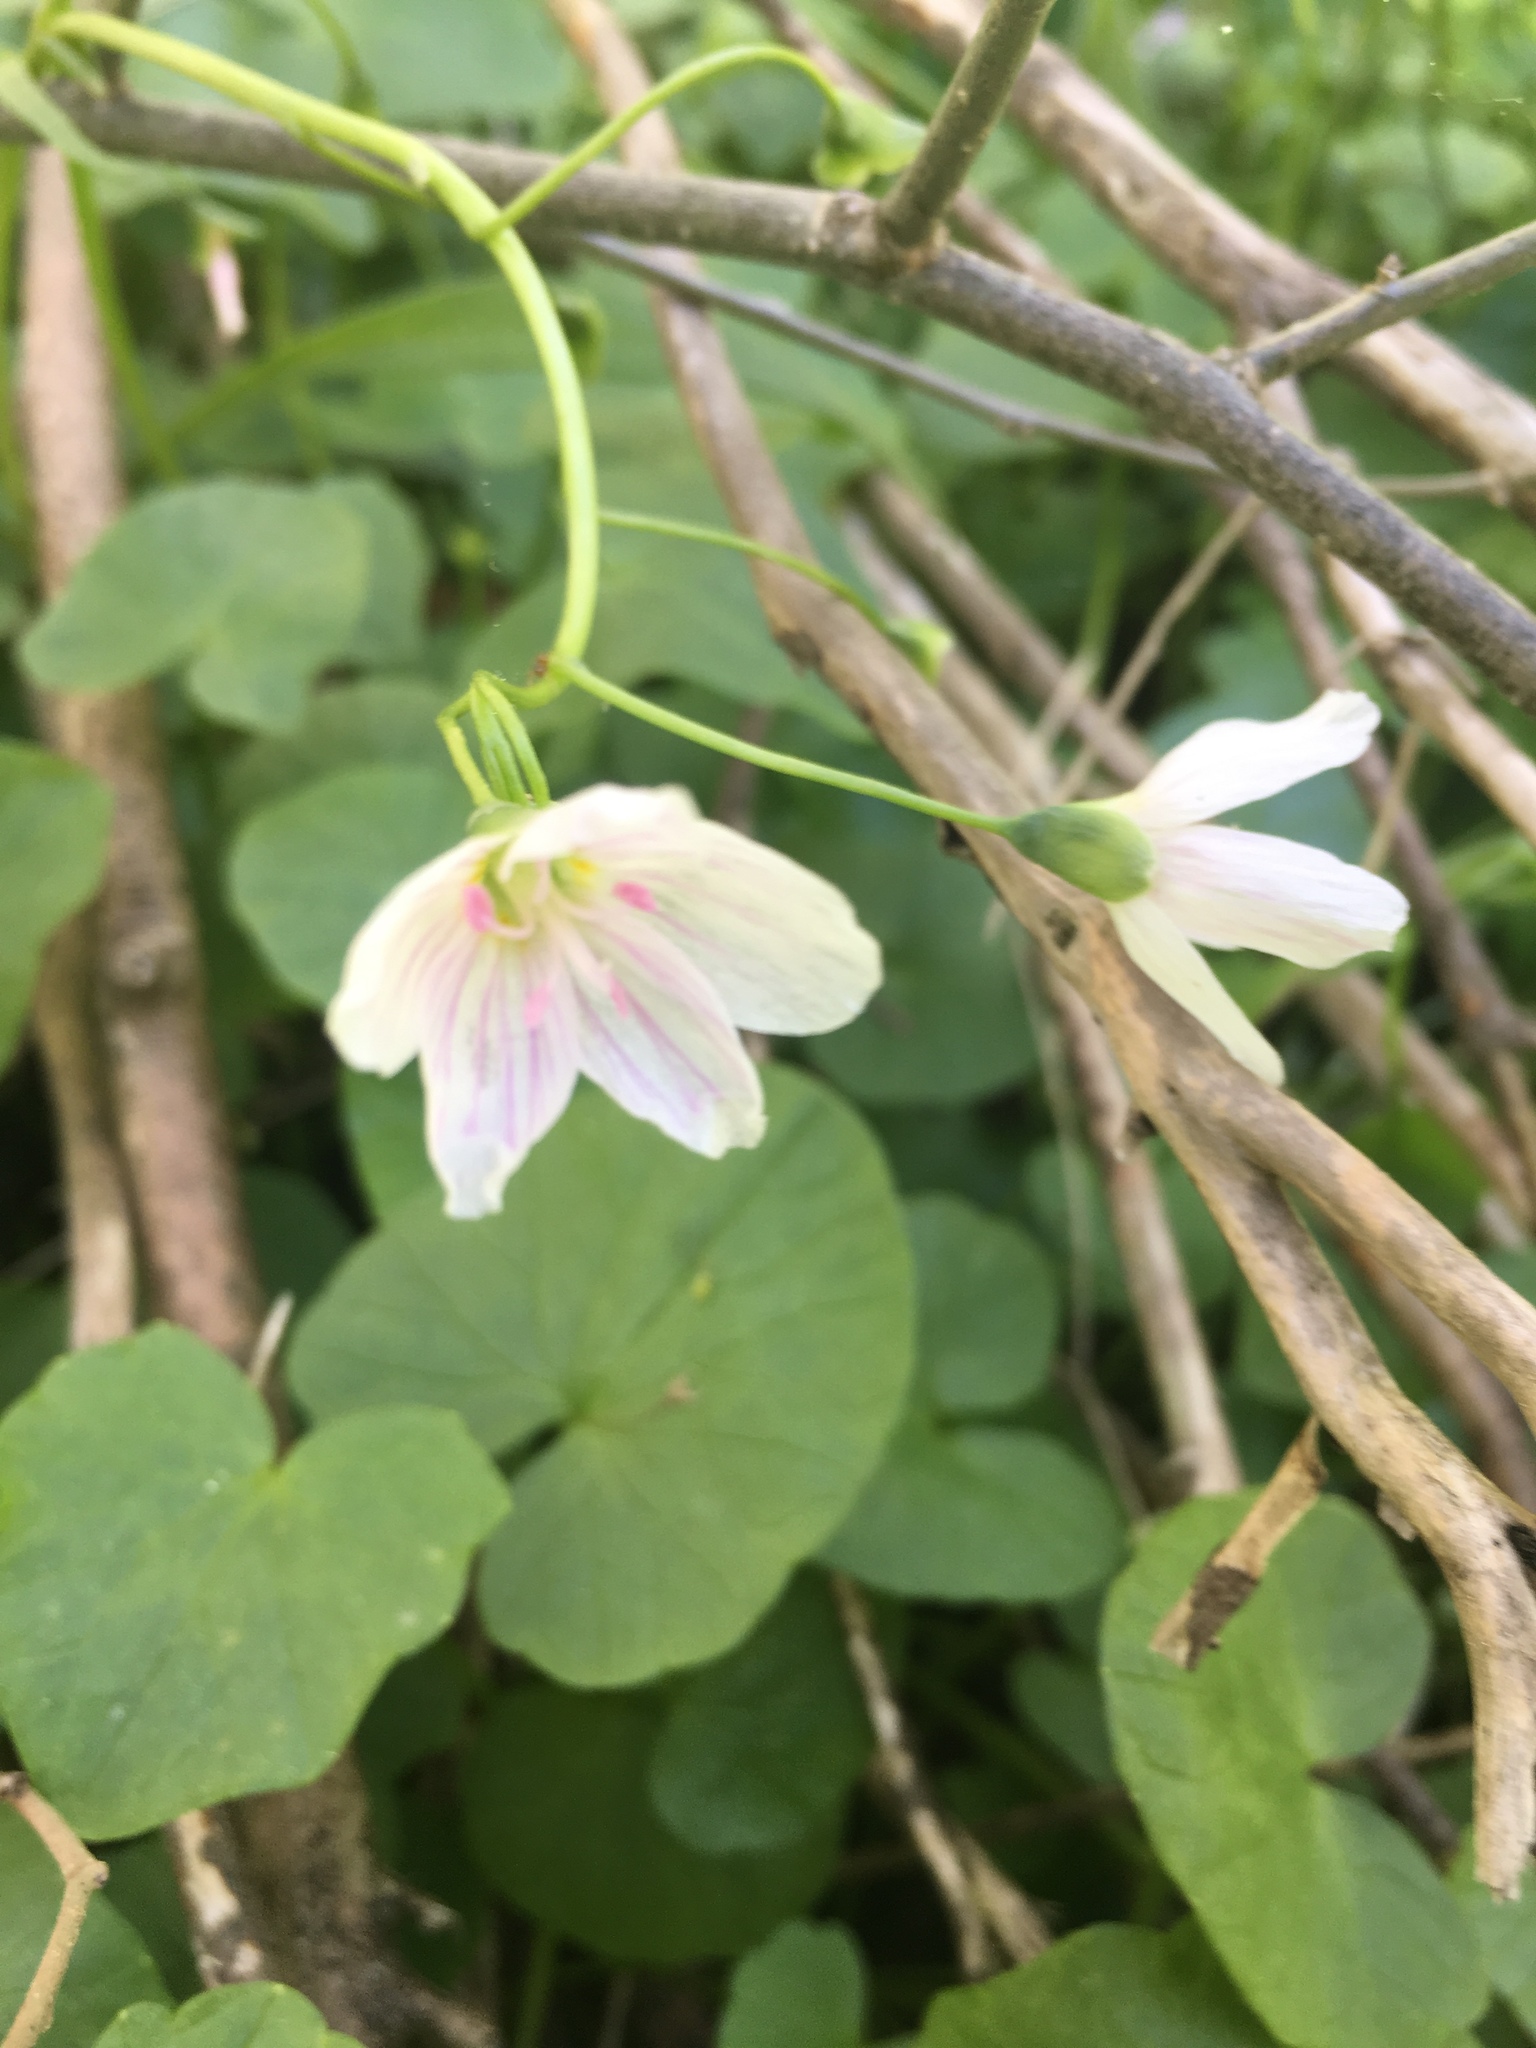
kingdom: Plantae
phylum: Tracheophyta
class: Magnoliopsida
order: Caryophyllales
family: Montiaceae
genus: Claytonia
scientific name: Claytonia virginica
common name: Virginia springbeauty
